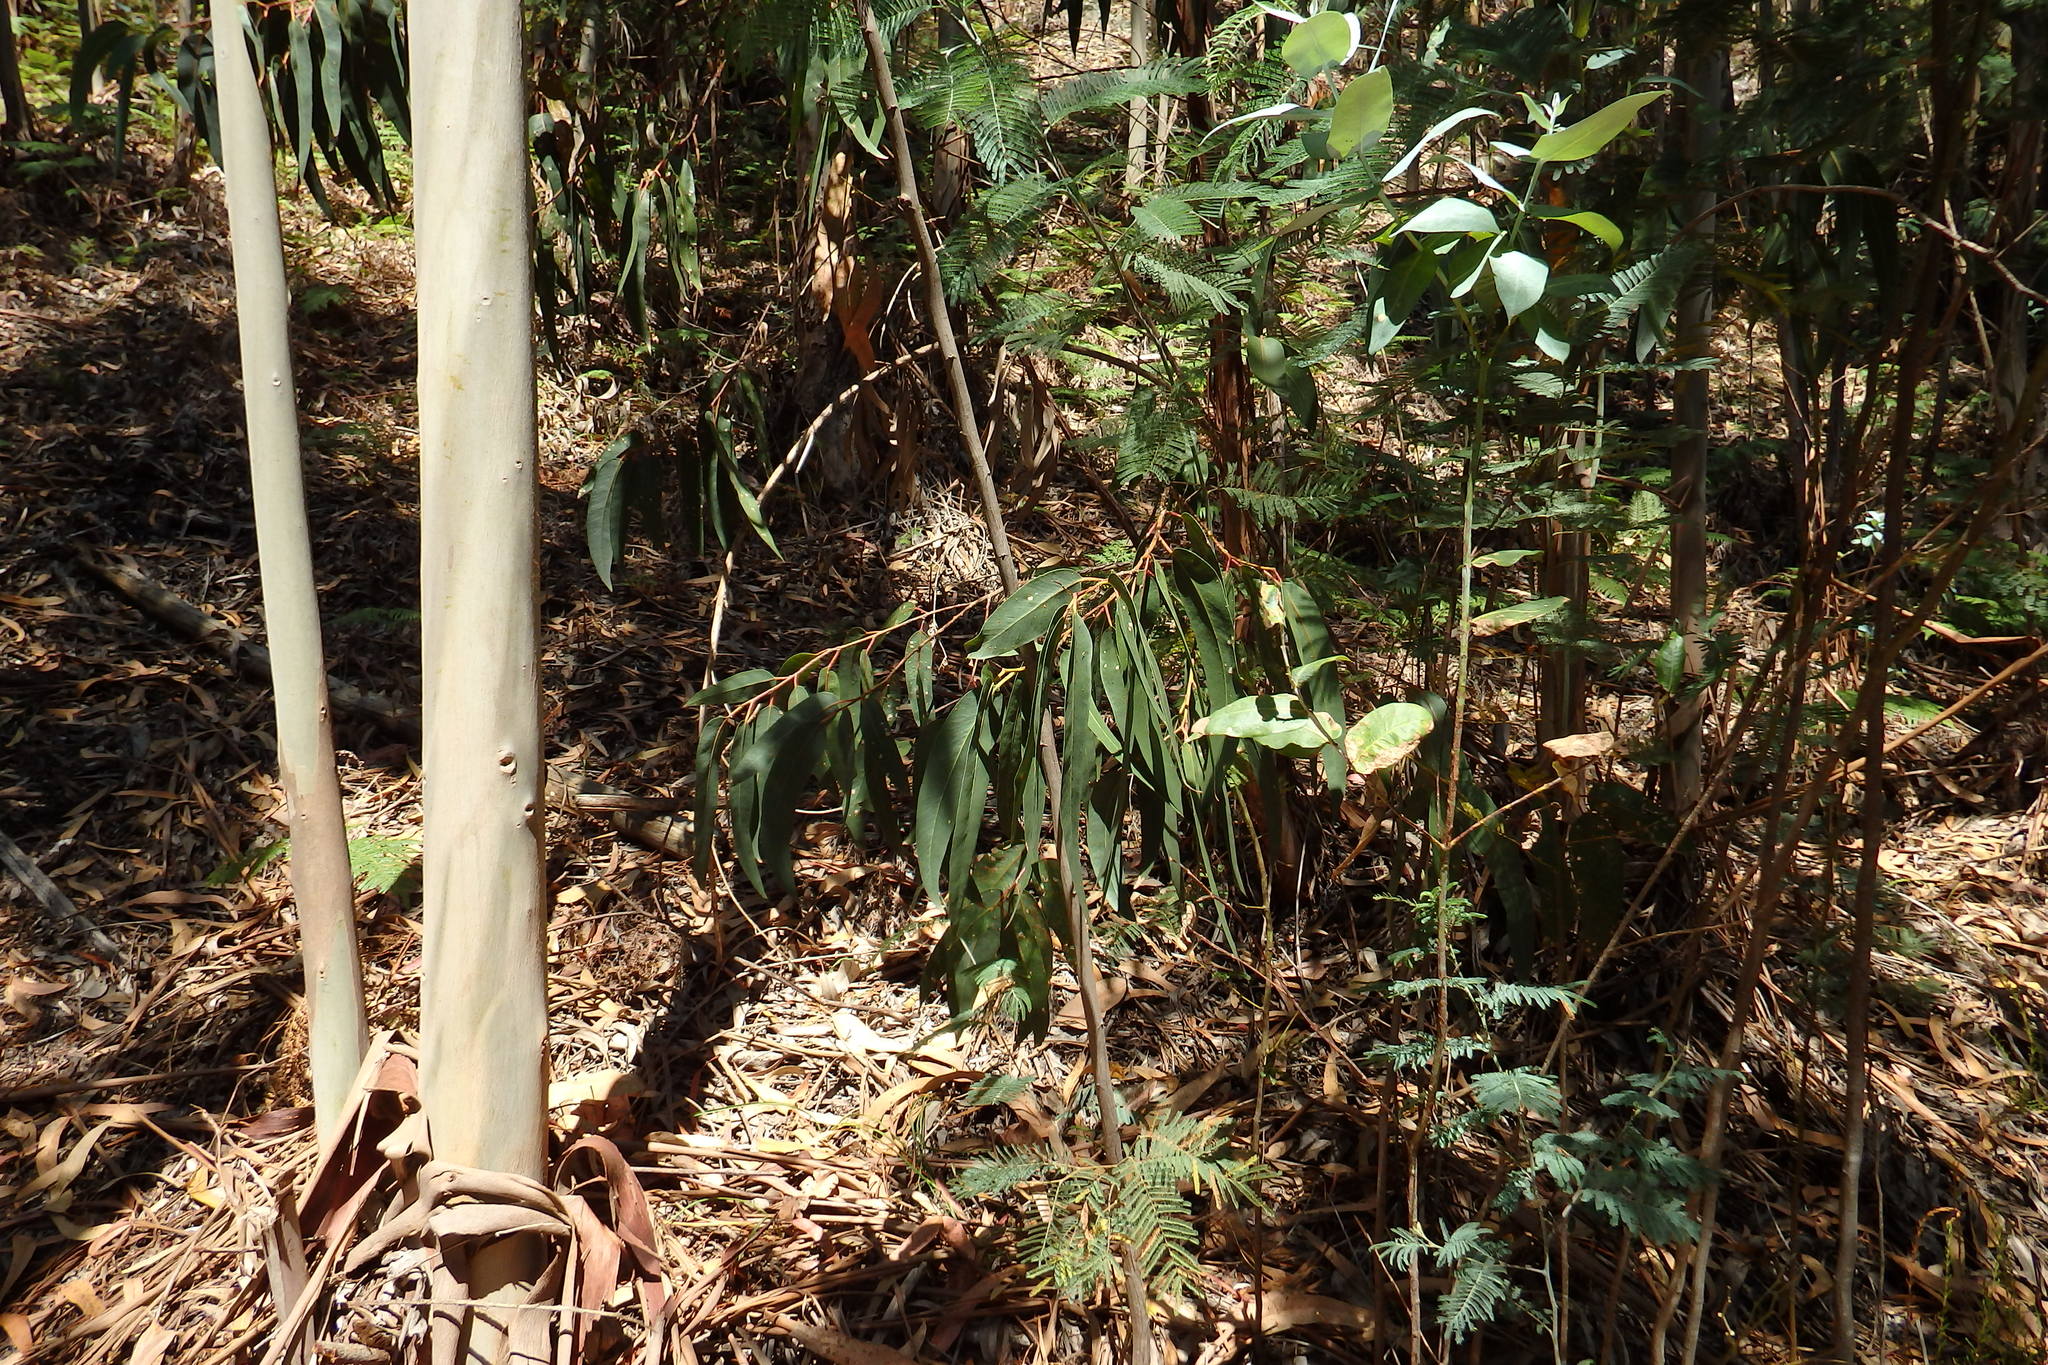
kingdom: Plantae
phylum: Tracheophyta
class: Magnoliopsida
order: Myrtales
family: Myrtaceae
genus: Eucalyptus
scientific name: Eucalyptus globulus
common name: Southern blue-gum
